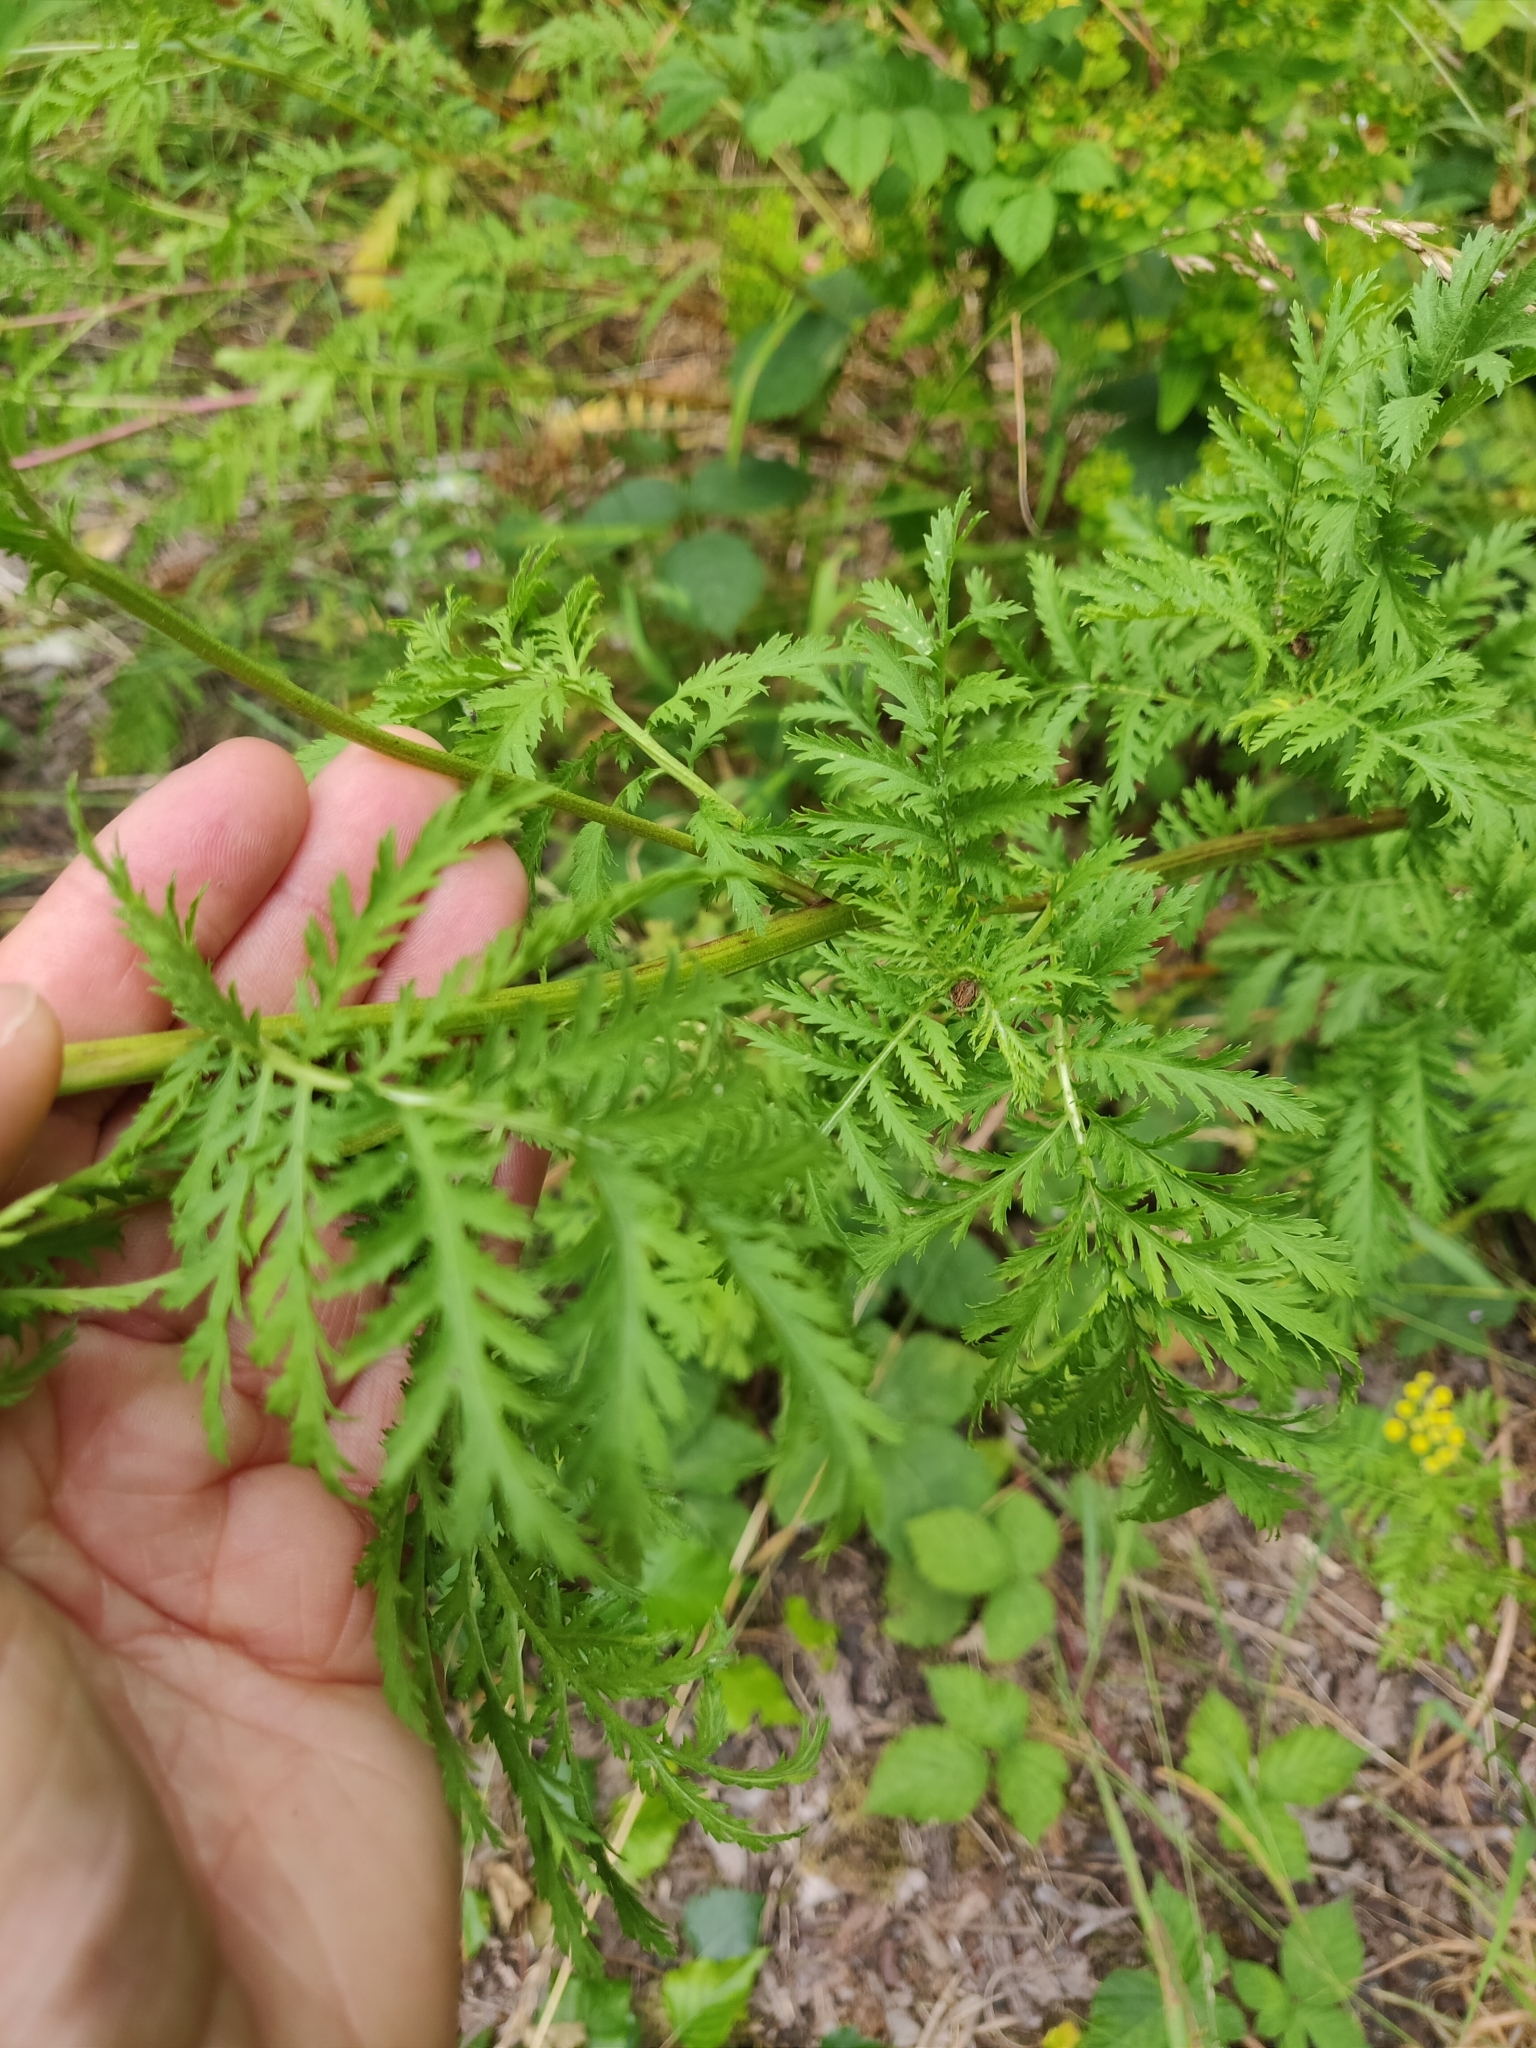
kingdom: Plantae
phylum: Tracheophyta
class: Magnoliopsida
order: Asterales
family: Asteraceae
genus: Tanacetum
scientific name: Tanacetum vulgare
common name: Common tansy
